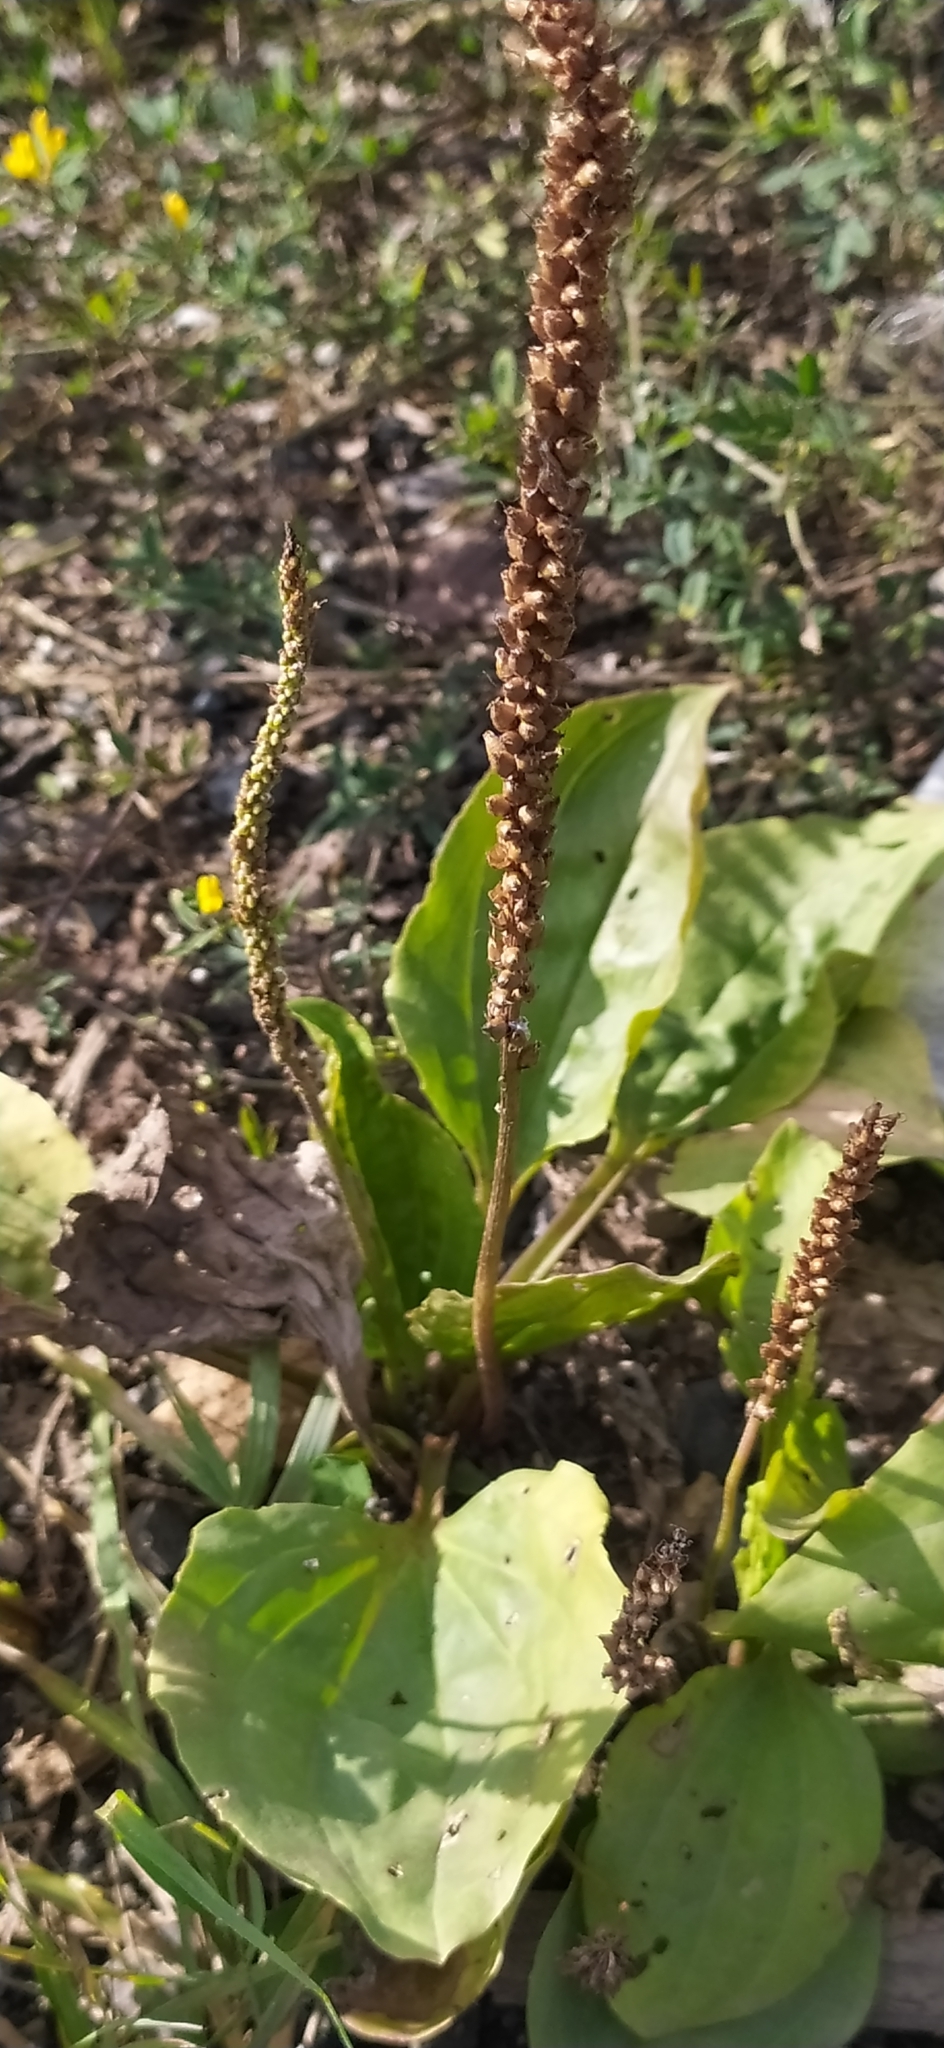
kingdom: Plantae
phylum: Tracheophyta
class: Magnoliopsida
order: Lamiales
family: Plantaginaceae
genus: Plantago
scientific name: Plantago major
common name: Common plantain
